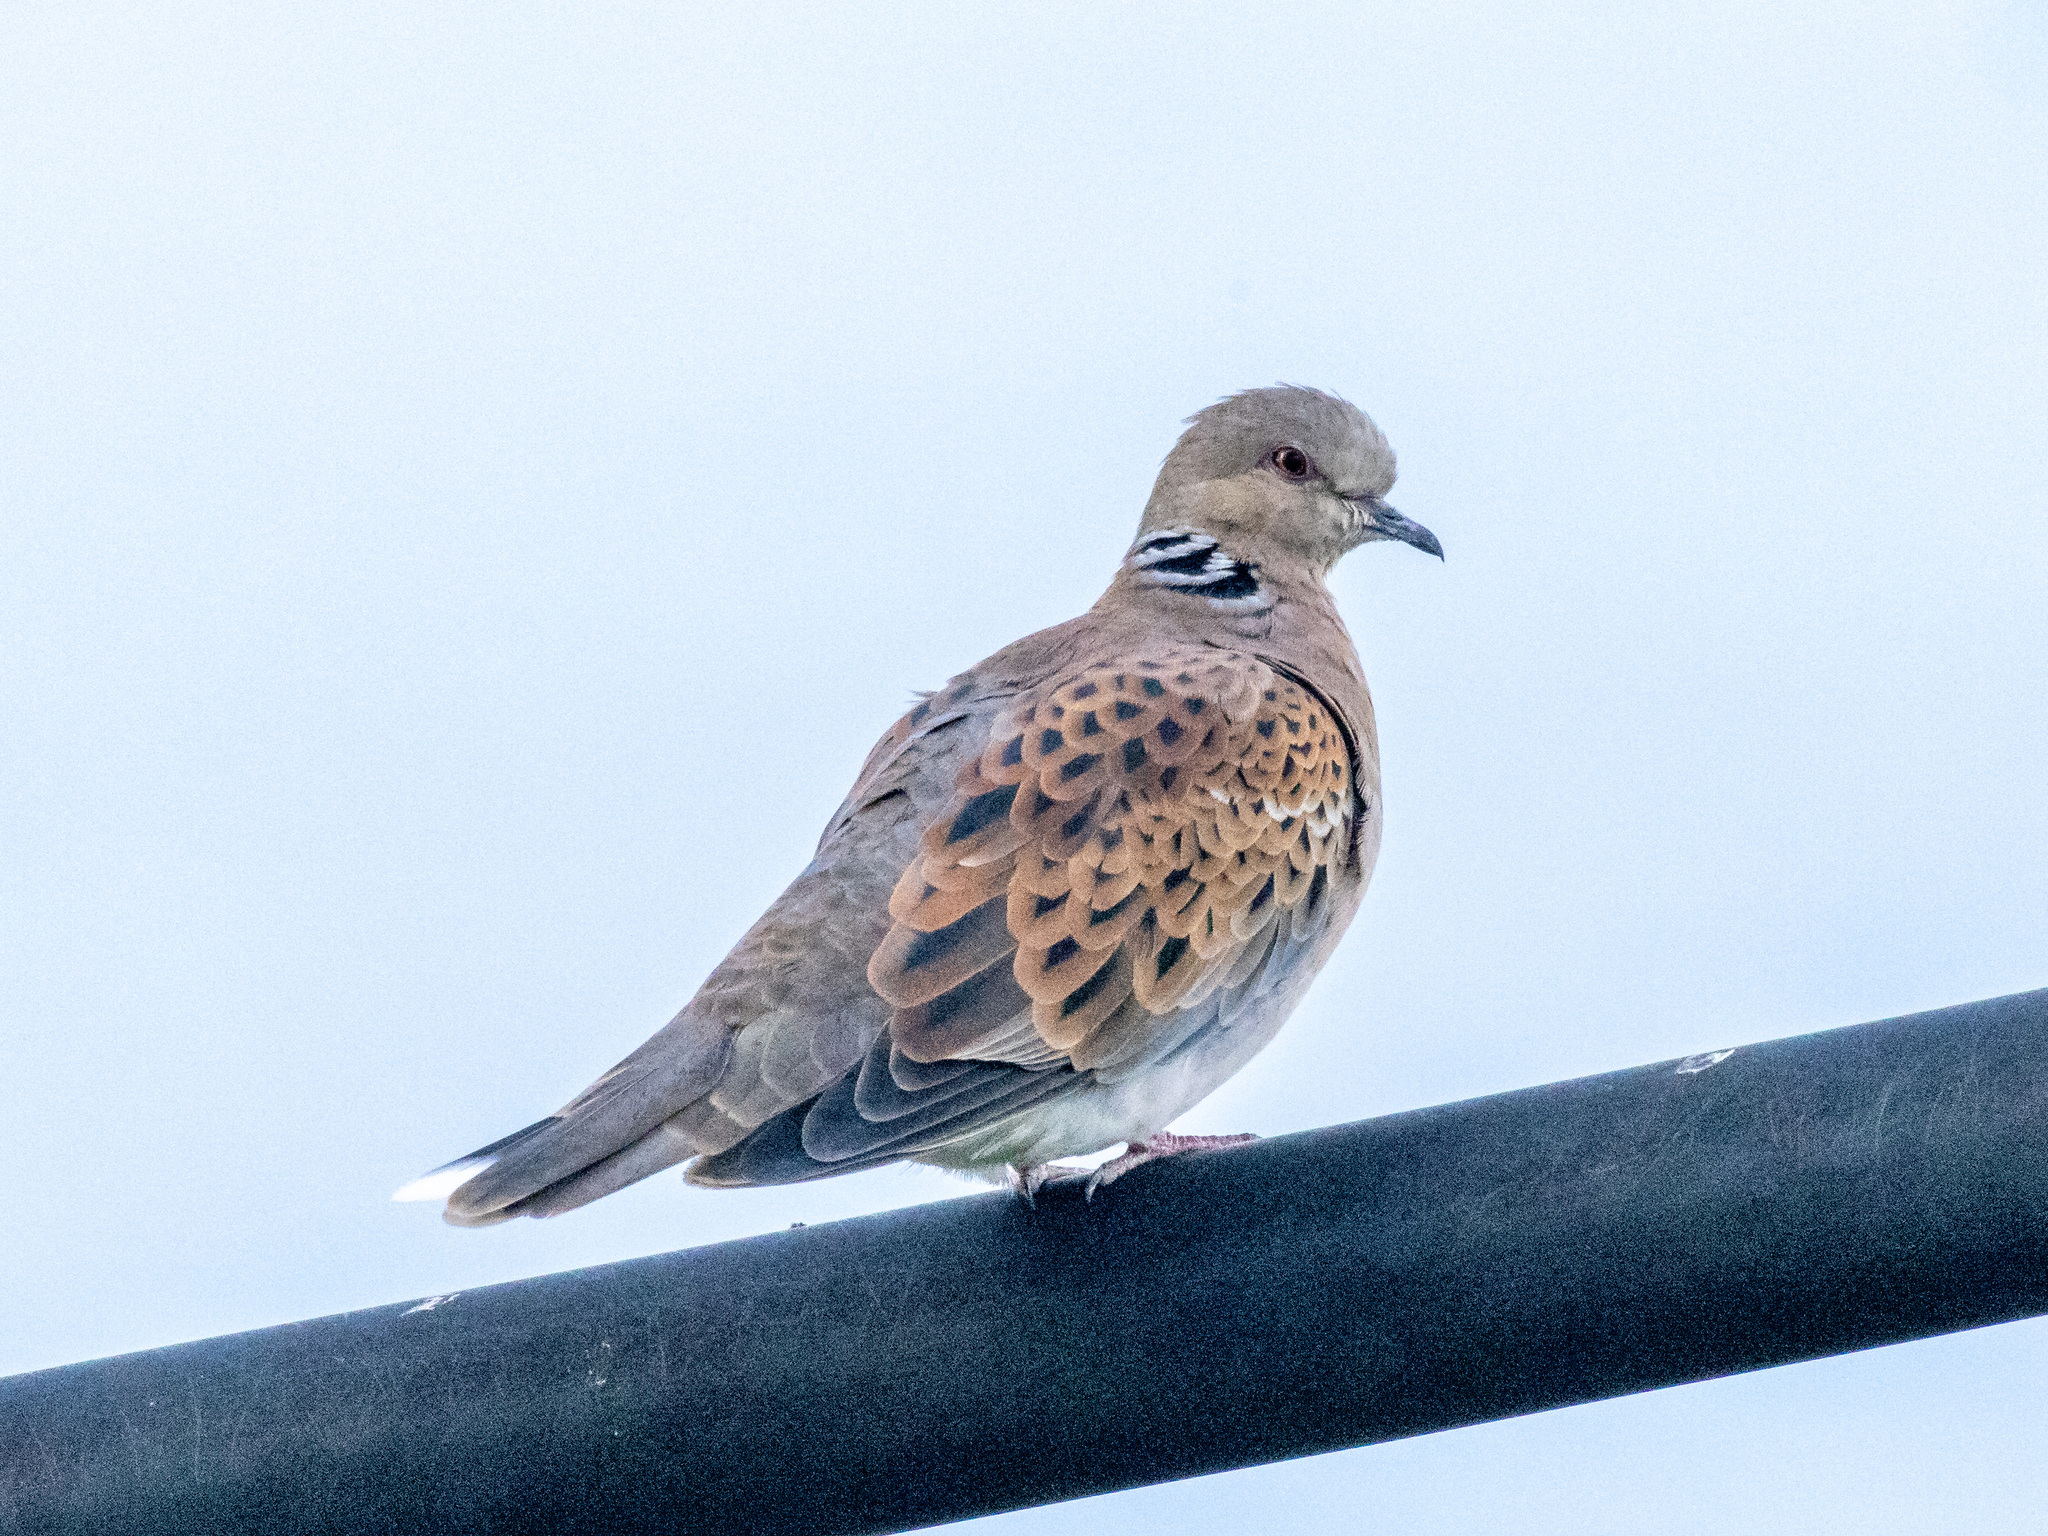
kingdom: Animalia
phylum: Chordata
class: Aves
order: Columbiformes
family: Columbidae
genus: Streptopelia
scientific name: Streptopelia turtur
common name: European turtle dove
